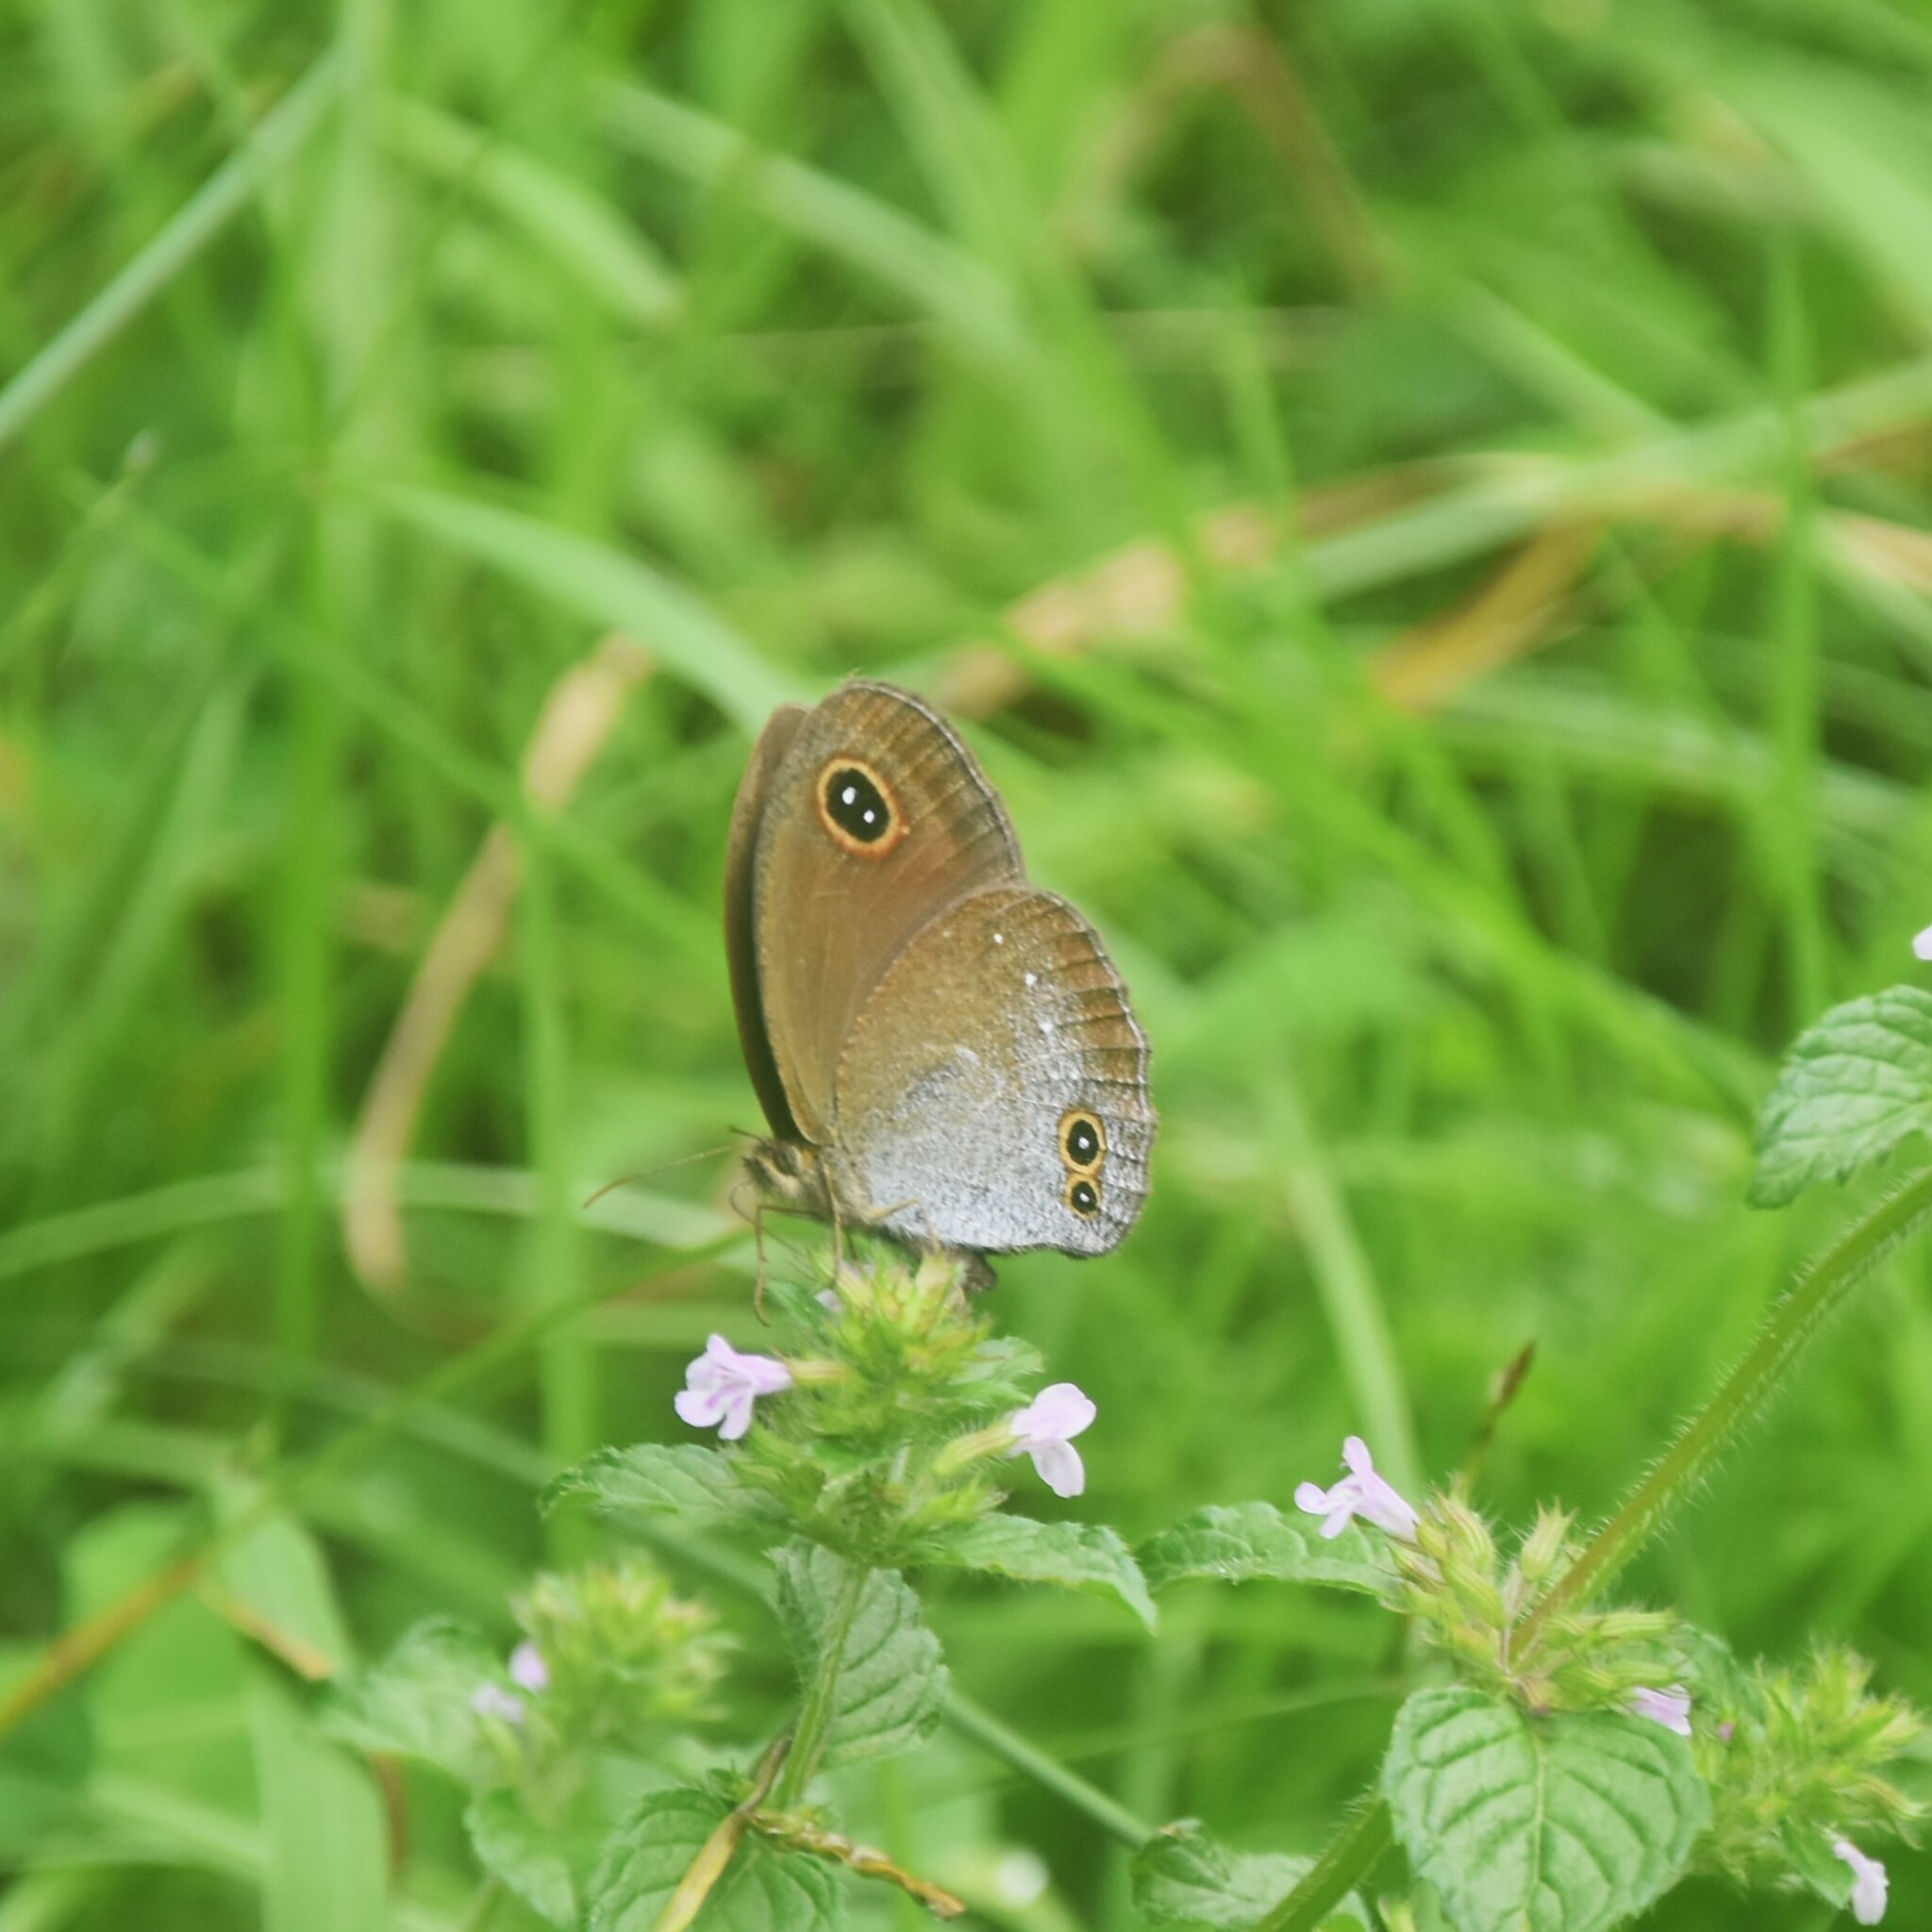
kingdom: Animalia
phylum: Arthropoda
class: Insecta
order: Lepidoptera
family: Nymphalidae
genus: Callerebia
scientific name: Callerebia scanda
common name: Pallid argus
